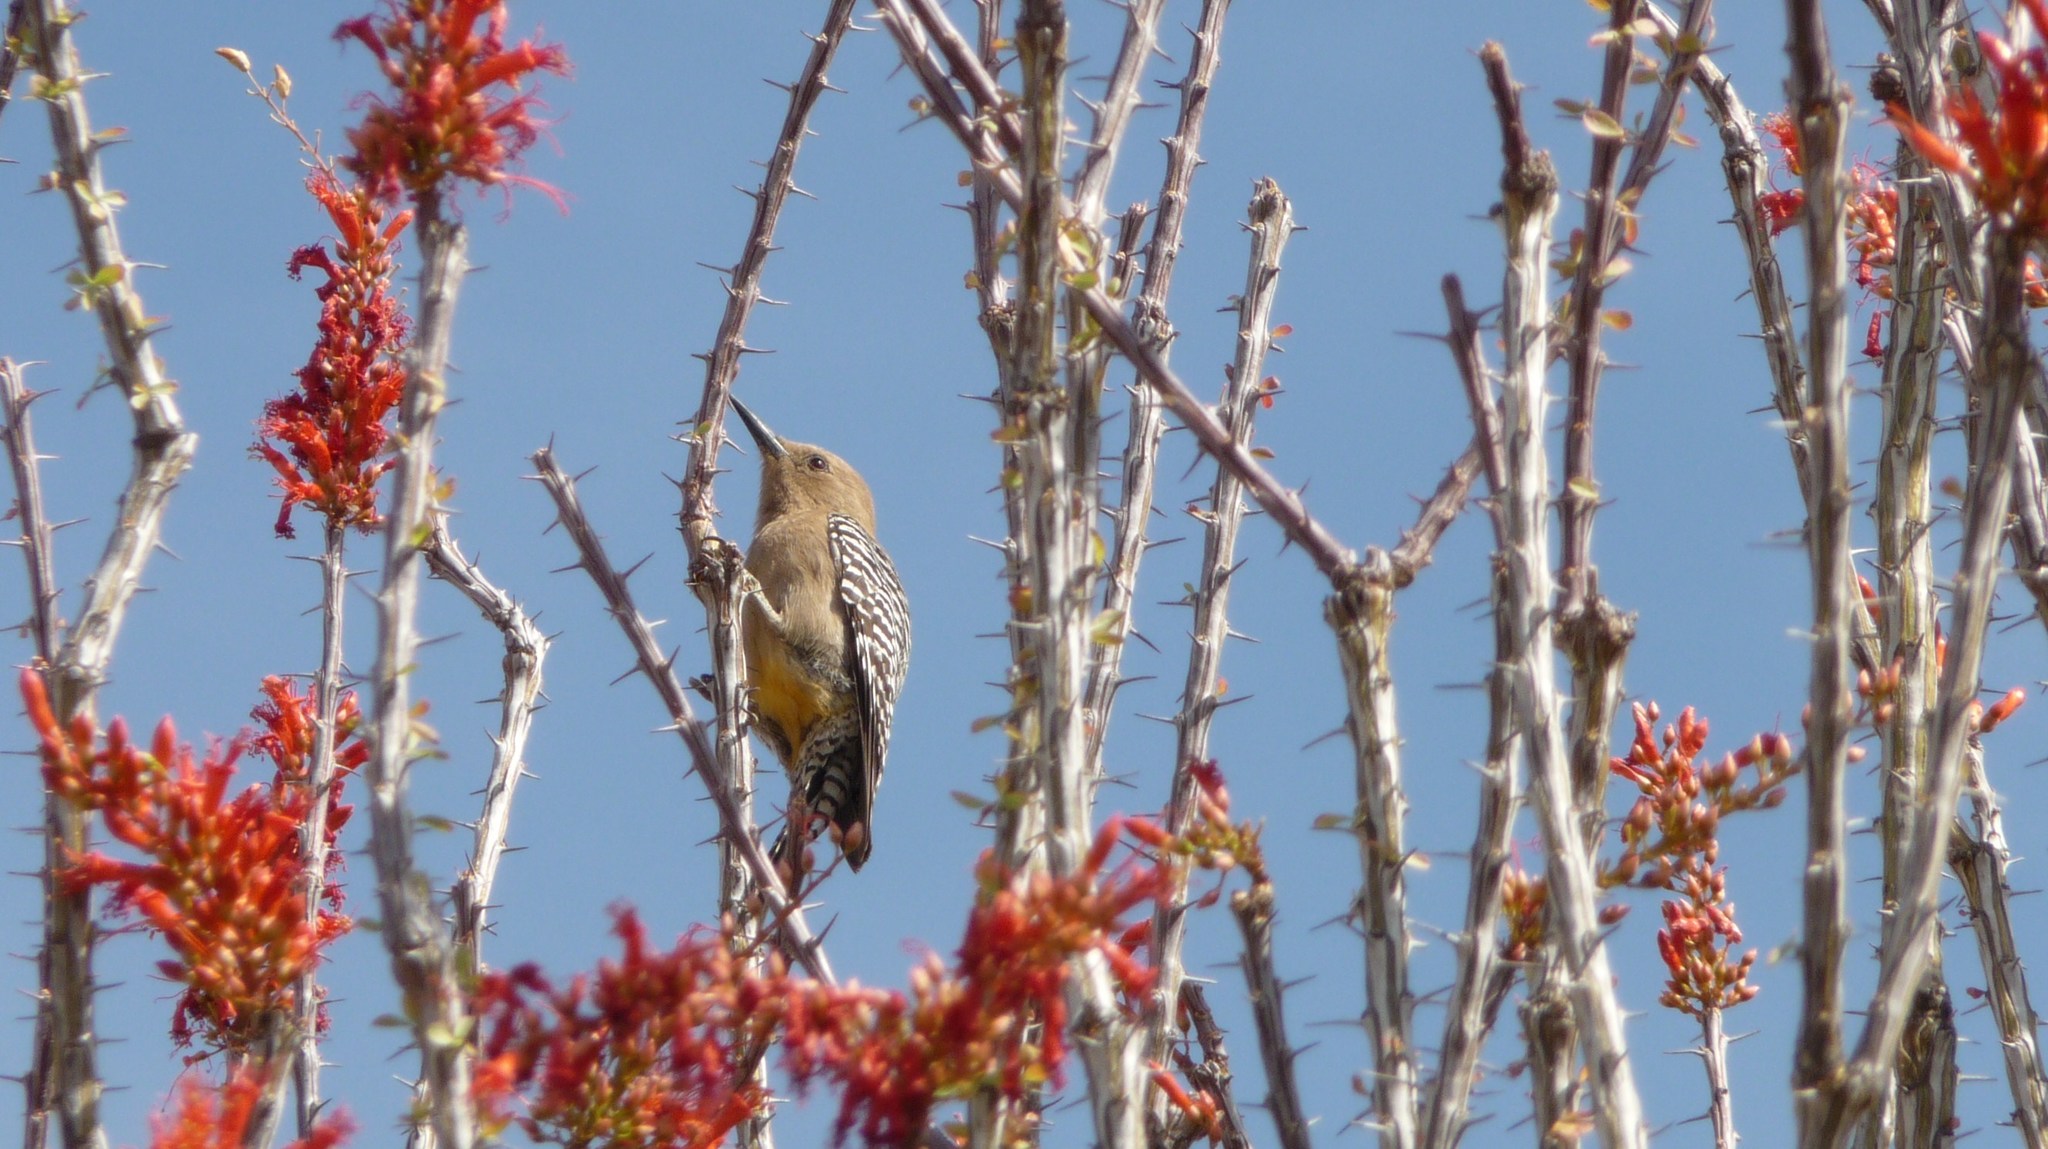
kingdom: Animalia
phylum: Chordata
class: Aves
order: Piciformes
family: Picidae
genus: Melanerpes
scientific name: Melanerpes uropygialis
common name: Gila woodpecker
